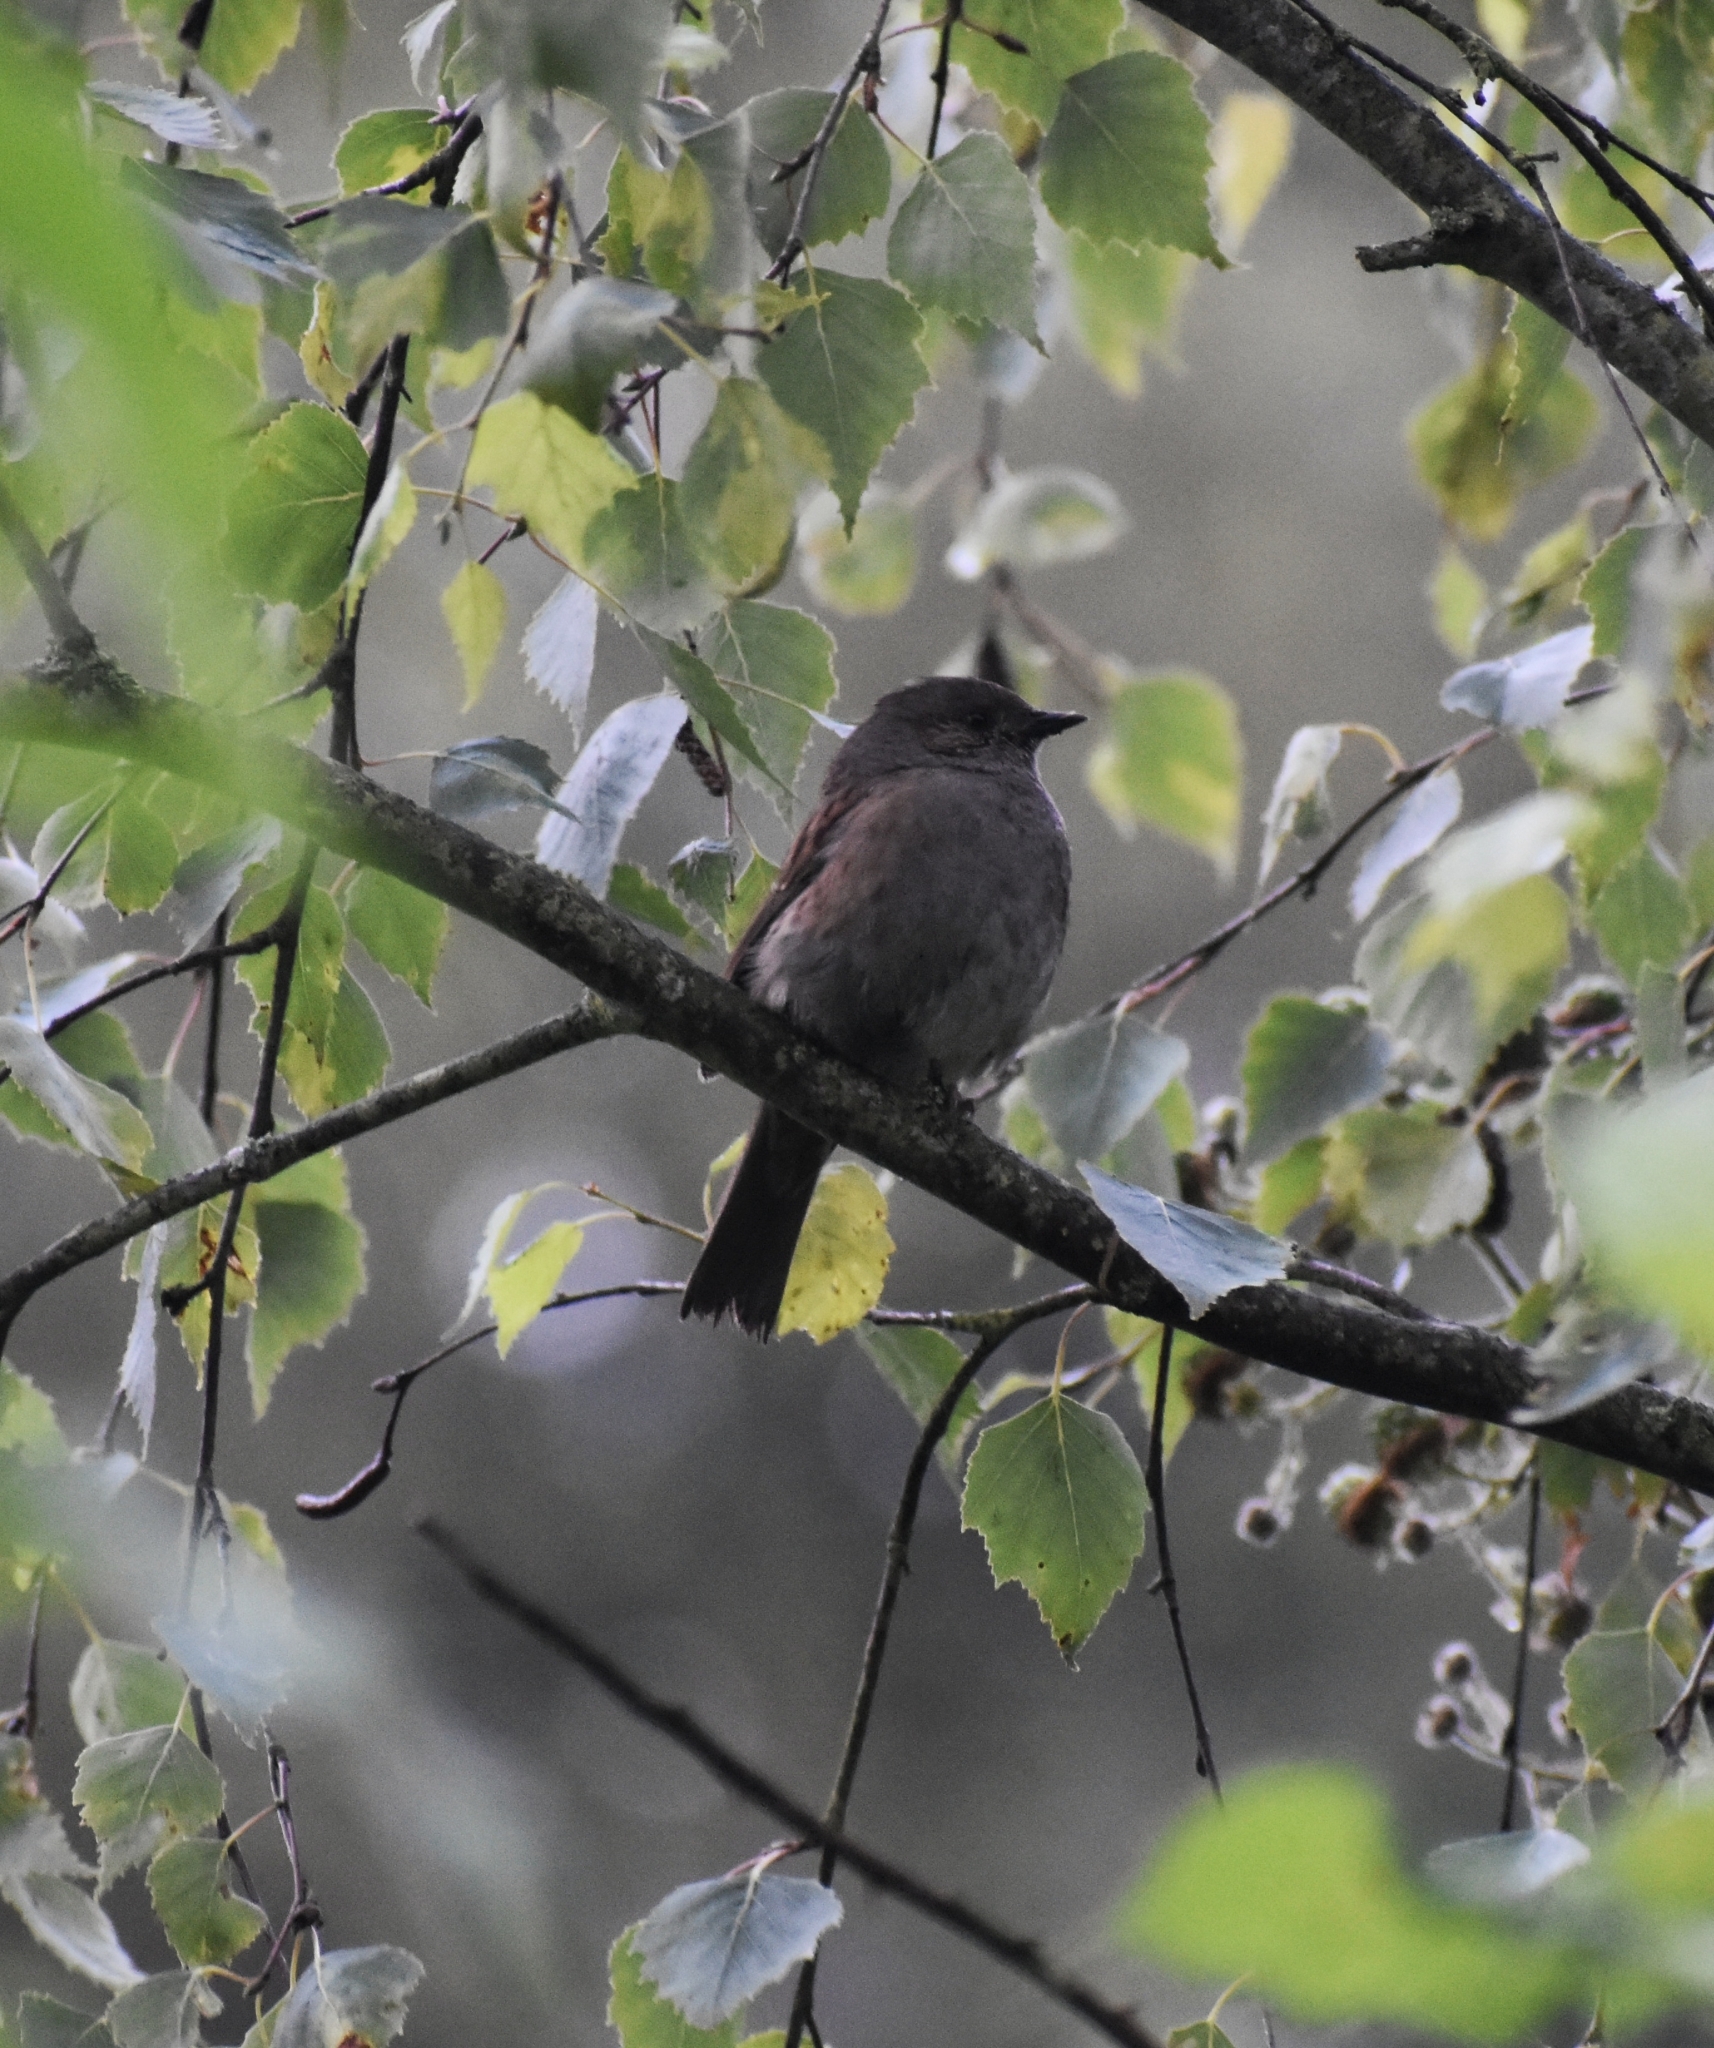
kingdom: Animalia
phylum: Chordata
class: Aves
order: Passeriformes
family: Prunellidae
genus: Prunella
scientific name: Prunella modularis
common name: Dunnock
